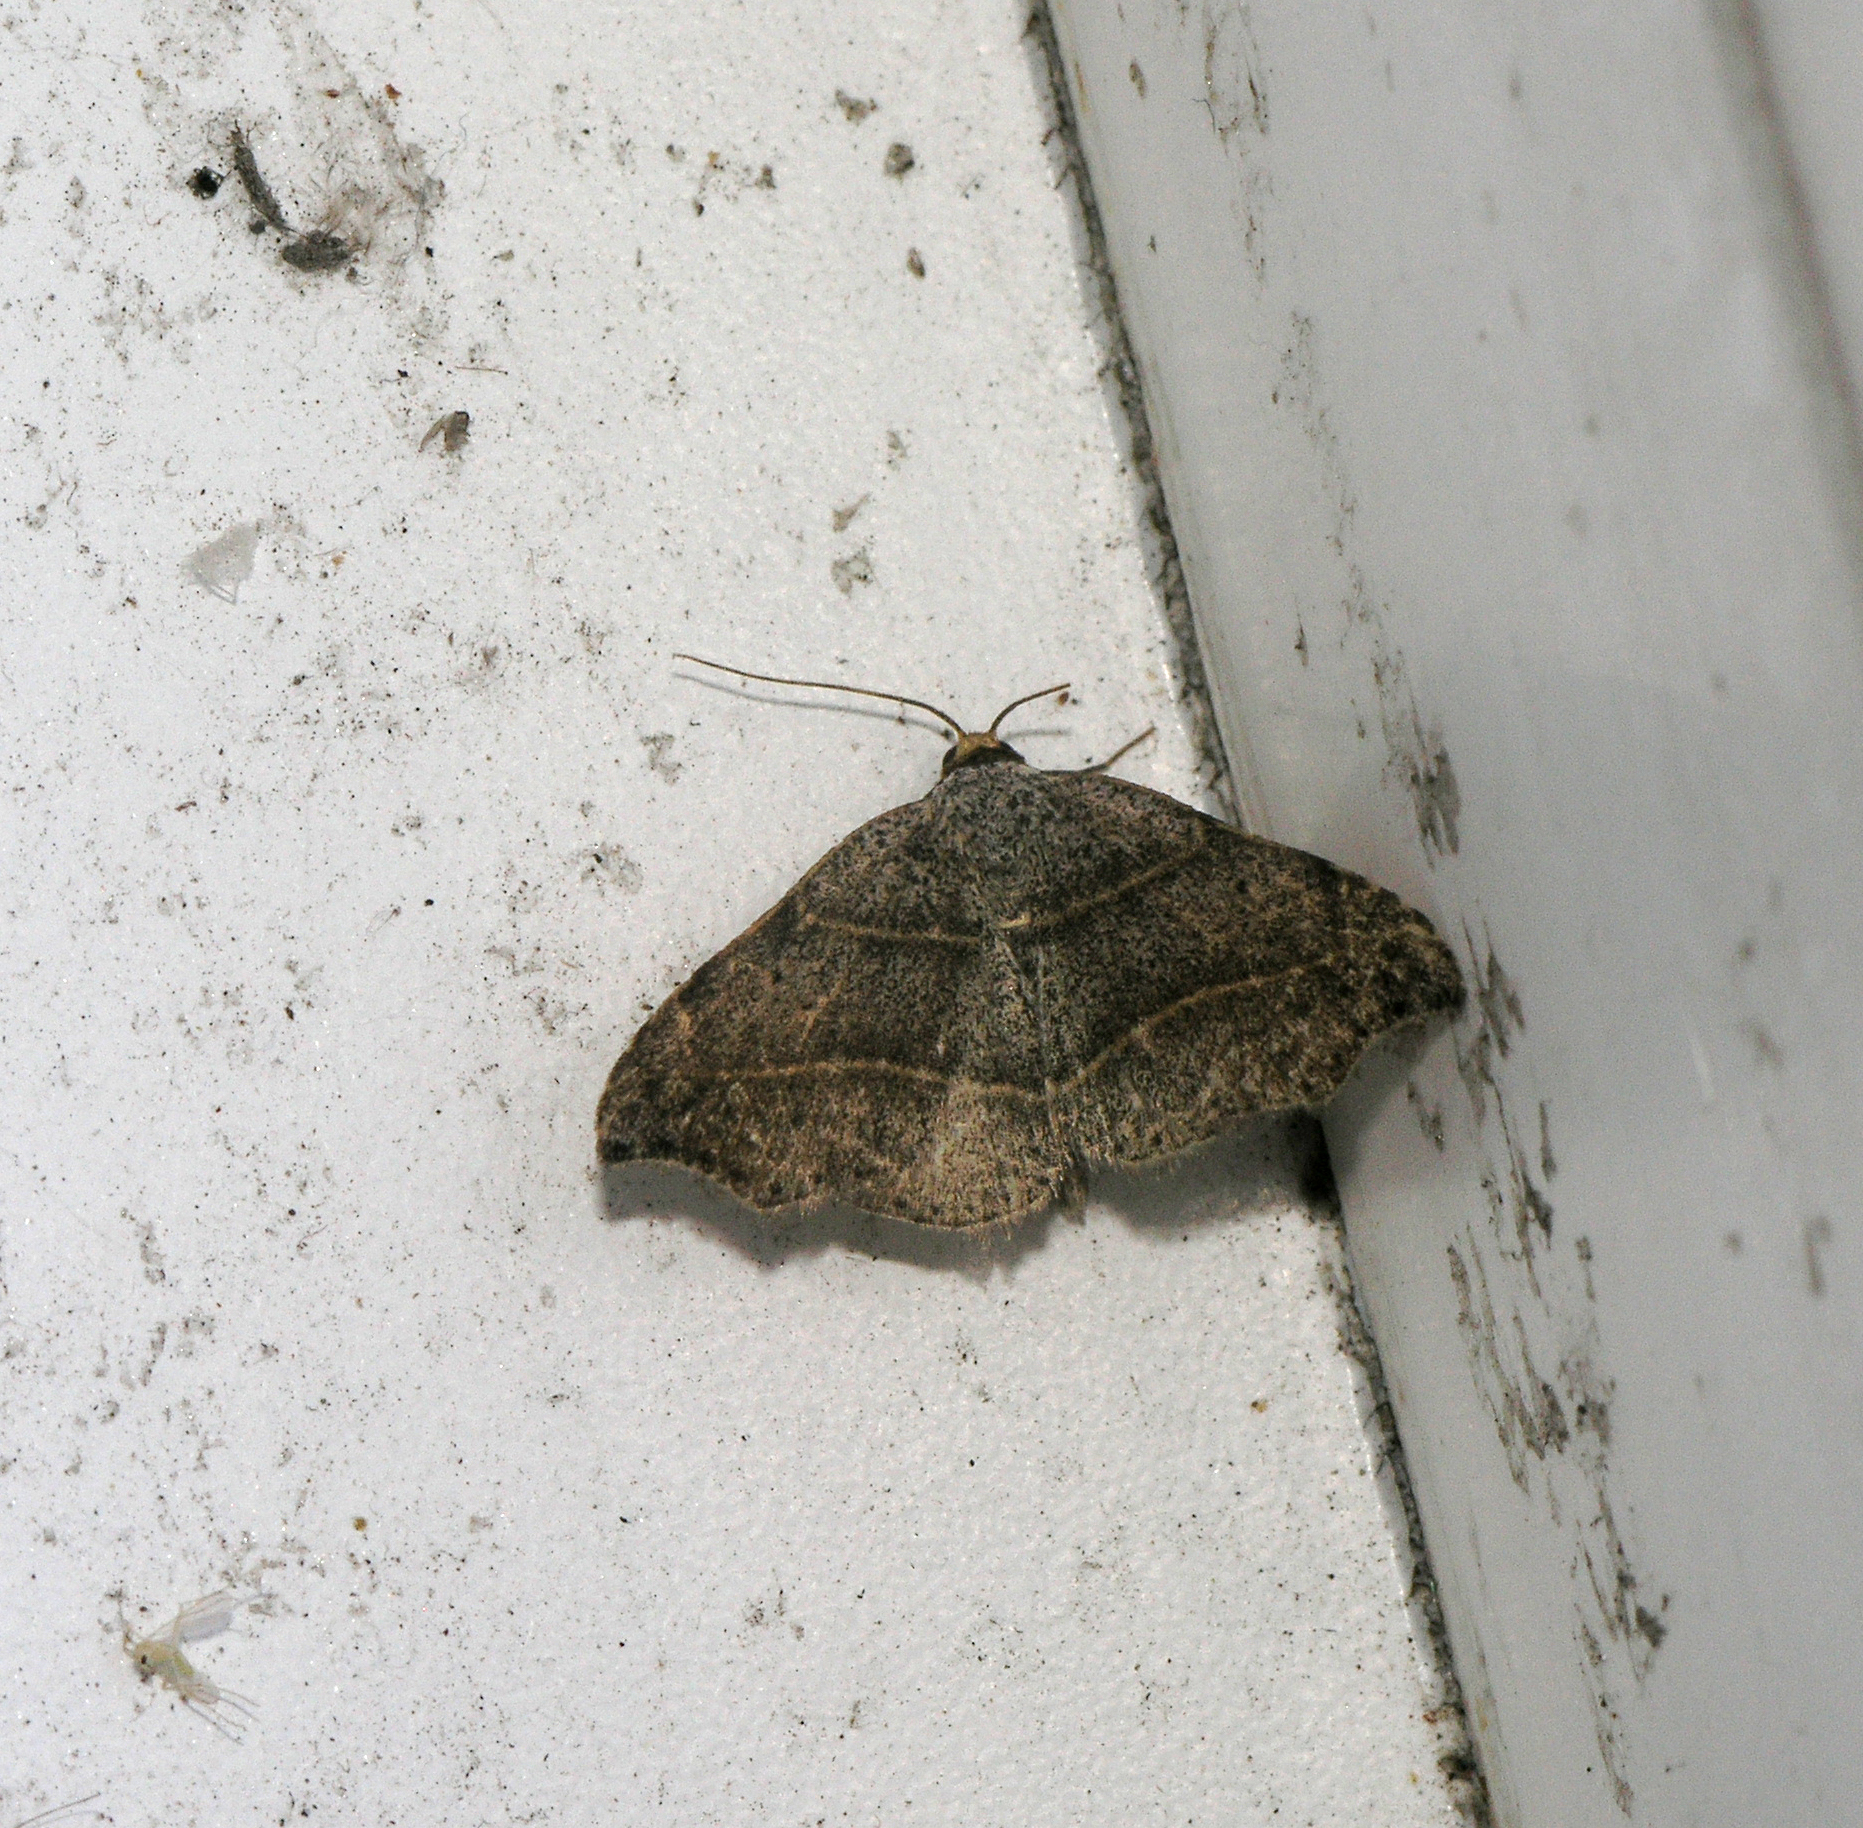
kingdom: Animalia
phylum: Arthropoda
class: Insecta
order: Lepidoptera
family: Erebidae
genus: Laspeyria
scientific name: Laspeyria flexula
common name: Beautiful hook-tip
